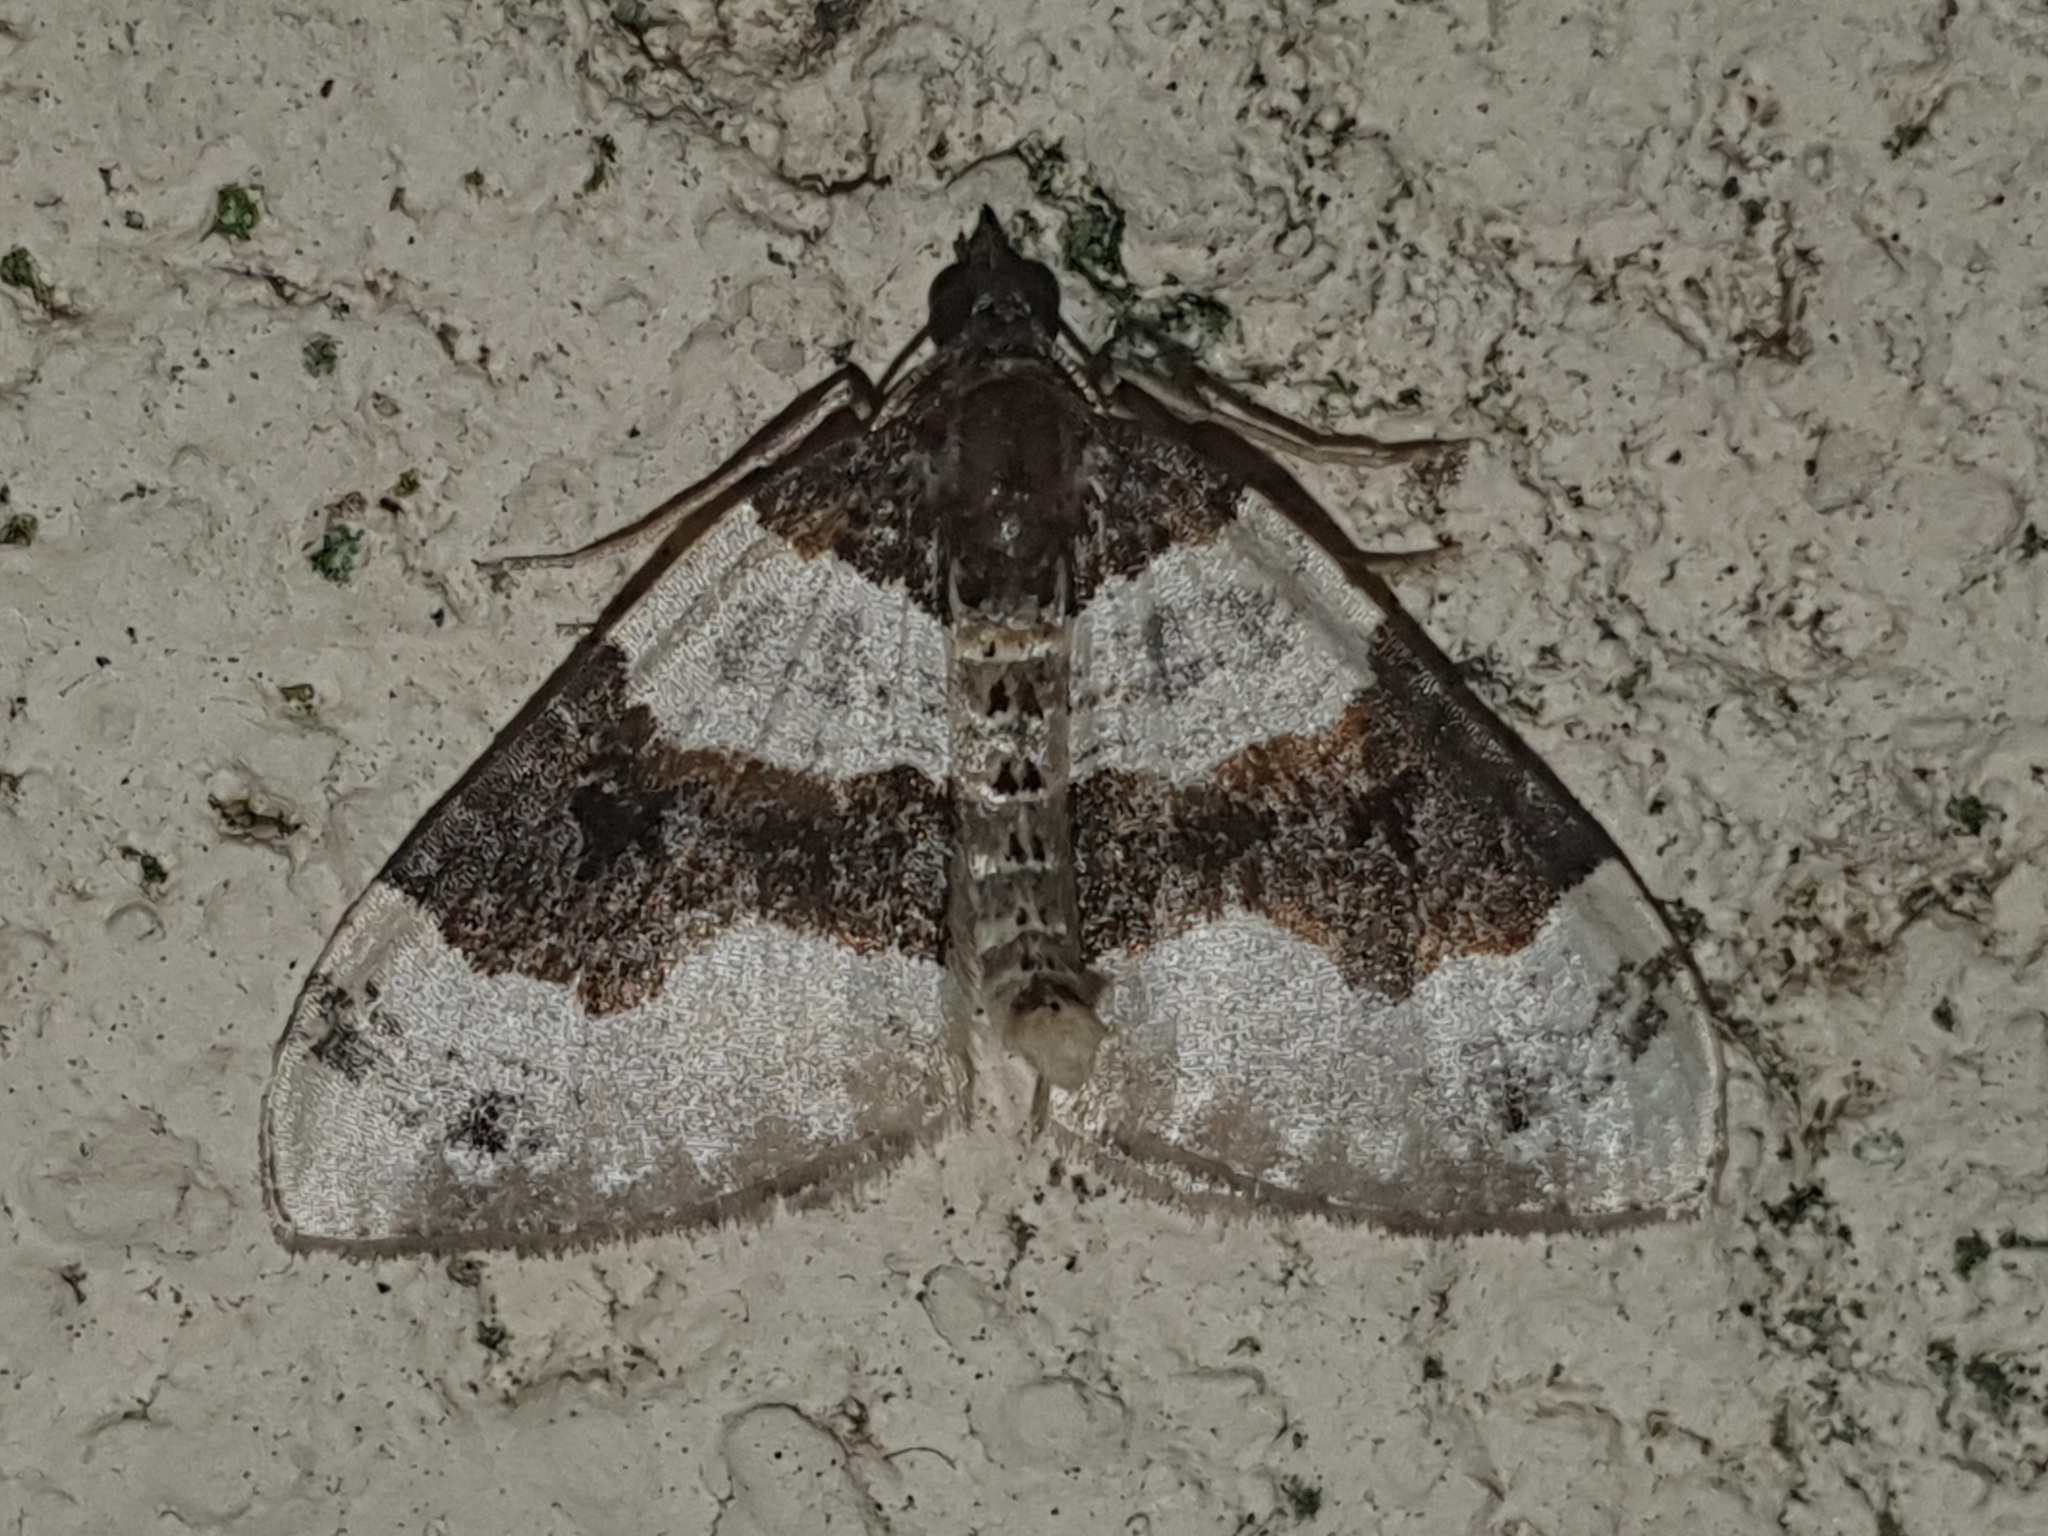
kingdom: Animalia
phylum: Arthropoda
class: Insecta
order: Lepidoptera
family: Geometridae
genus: Cosmorhoe
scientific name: Cosmorhoe ocellata
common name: Purple bar
